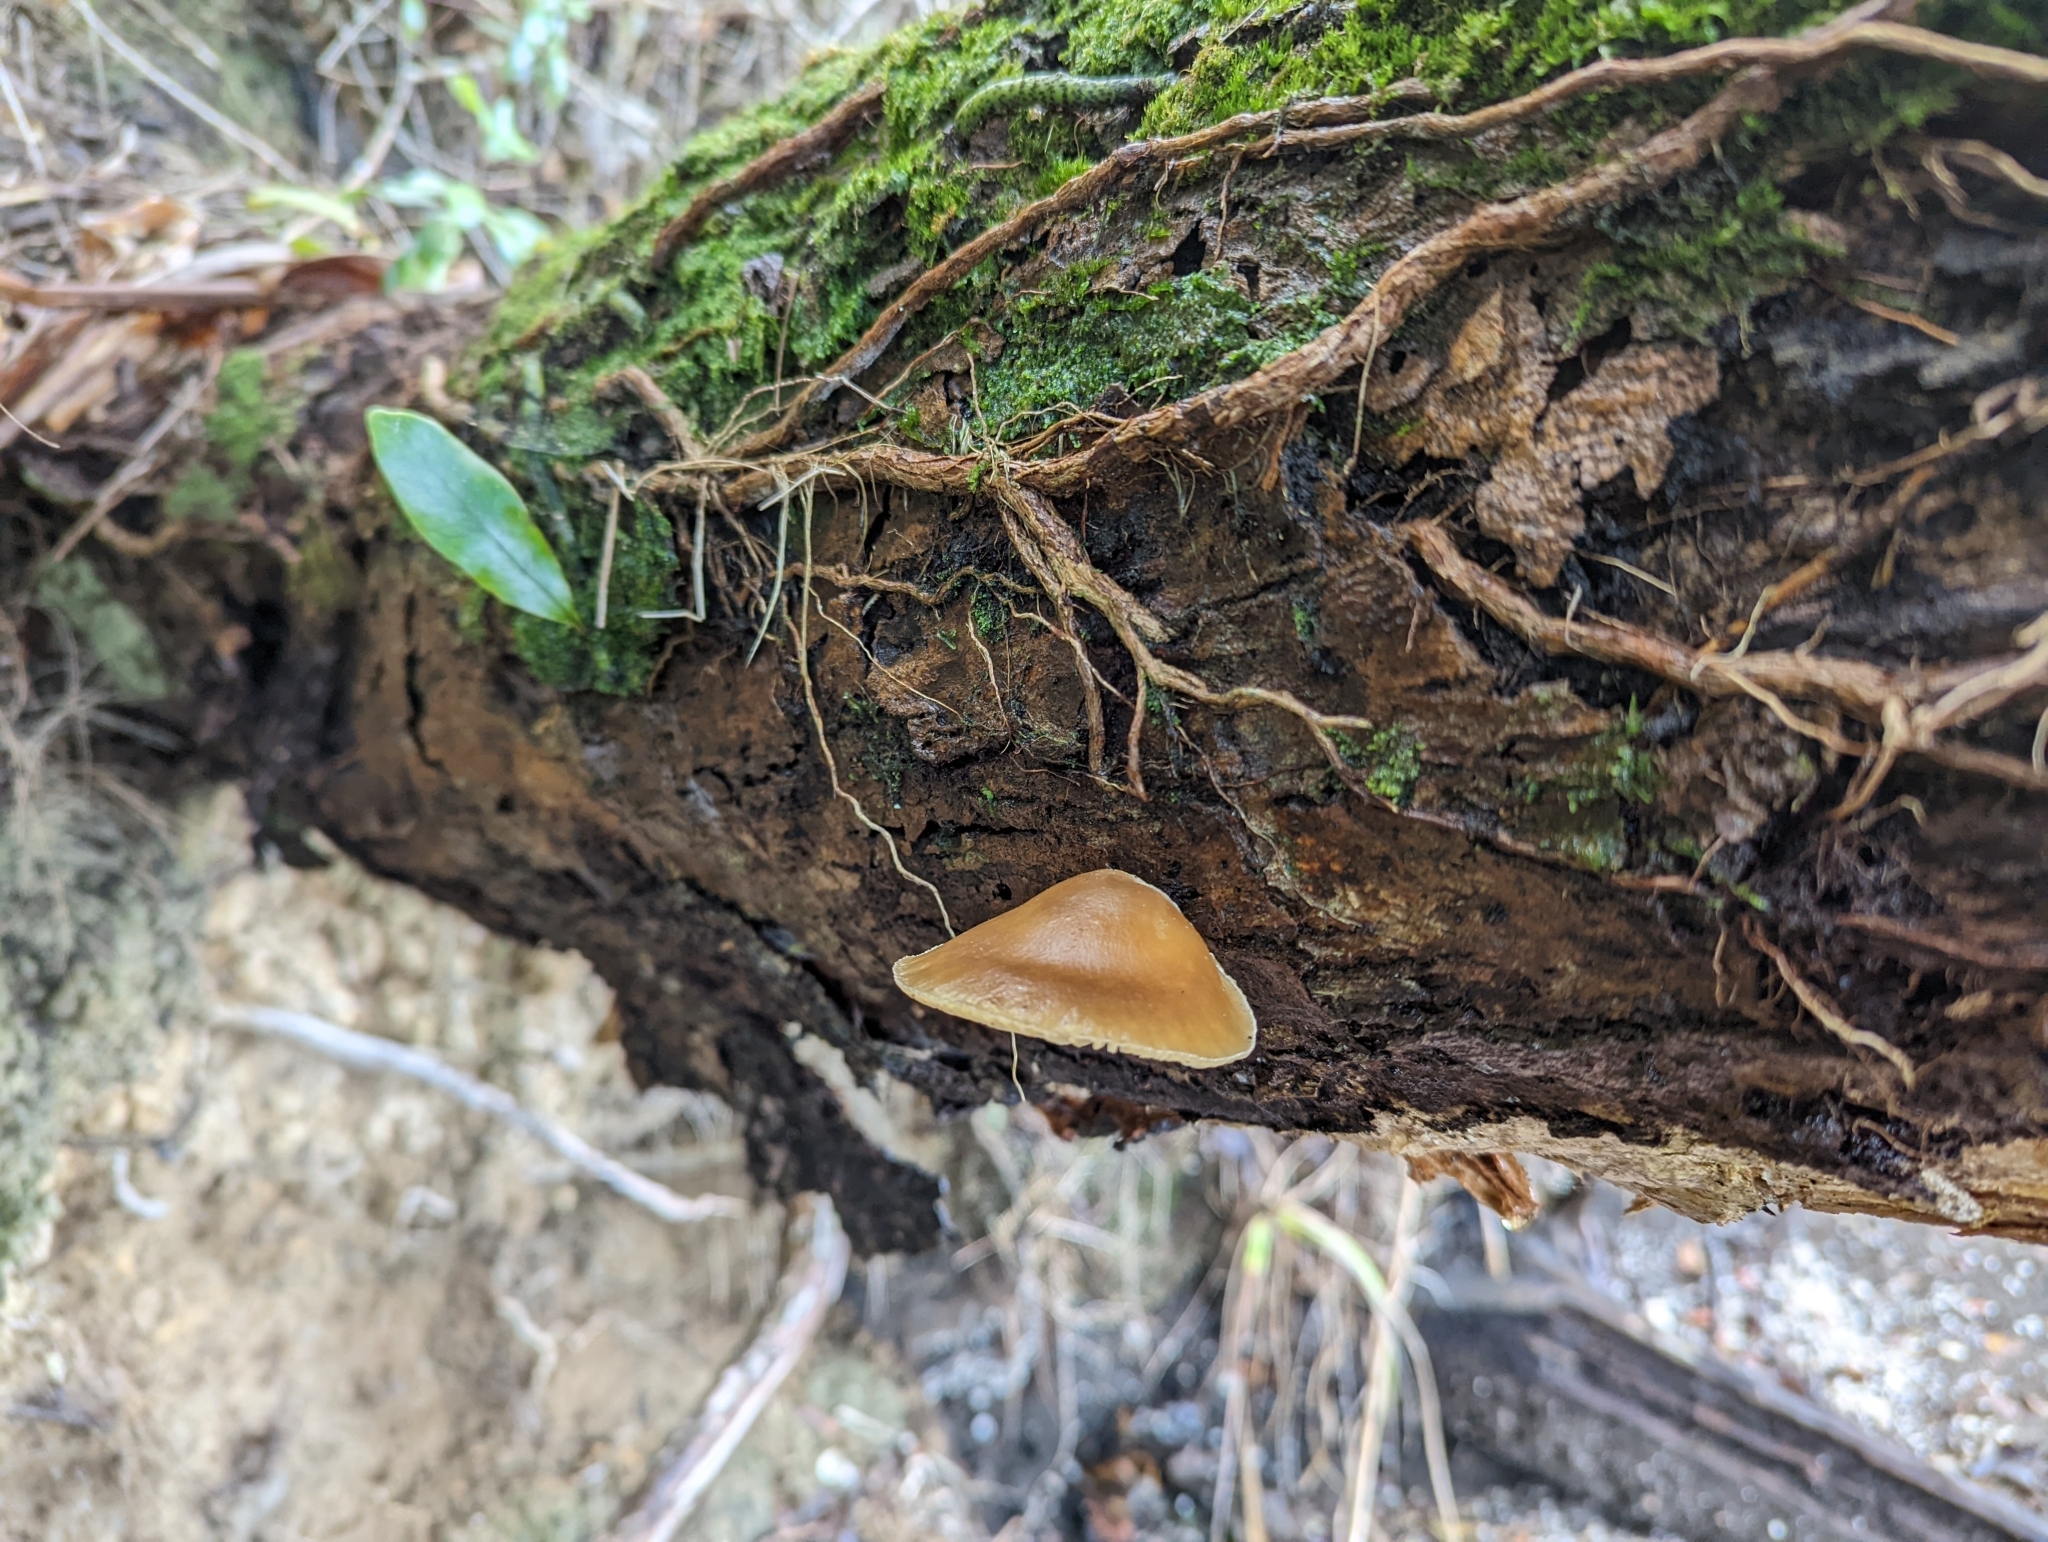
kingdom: Fungi
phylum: Basidiomycota
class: Agaricomycetes
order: Agaricales
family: Pleurotaceae
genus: Pleurotus
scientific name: Pleurotus australis
